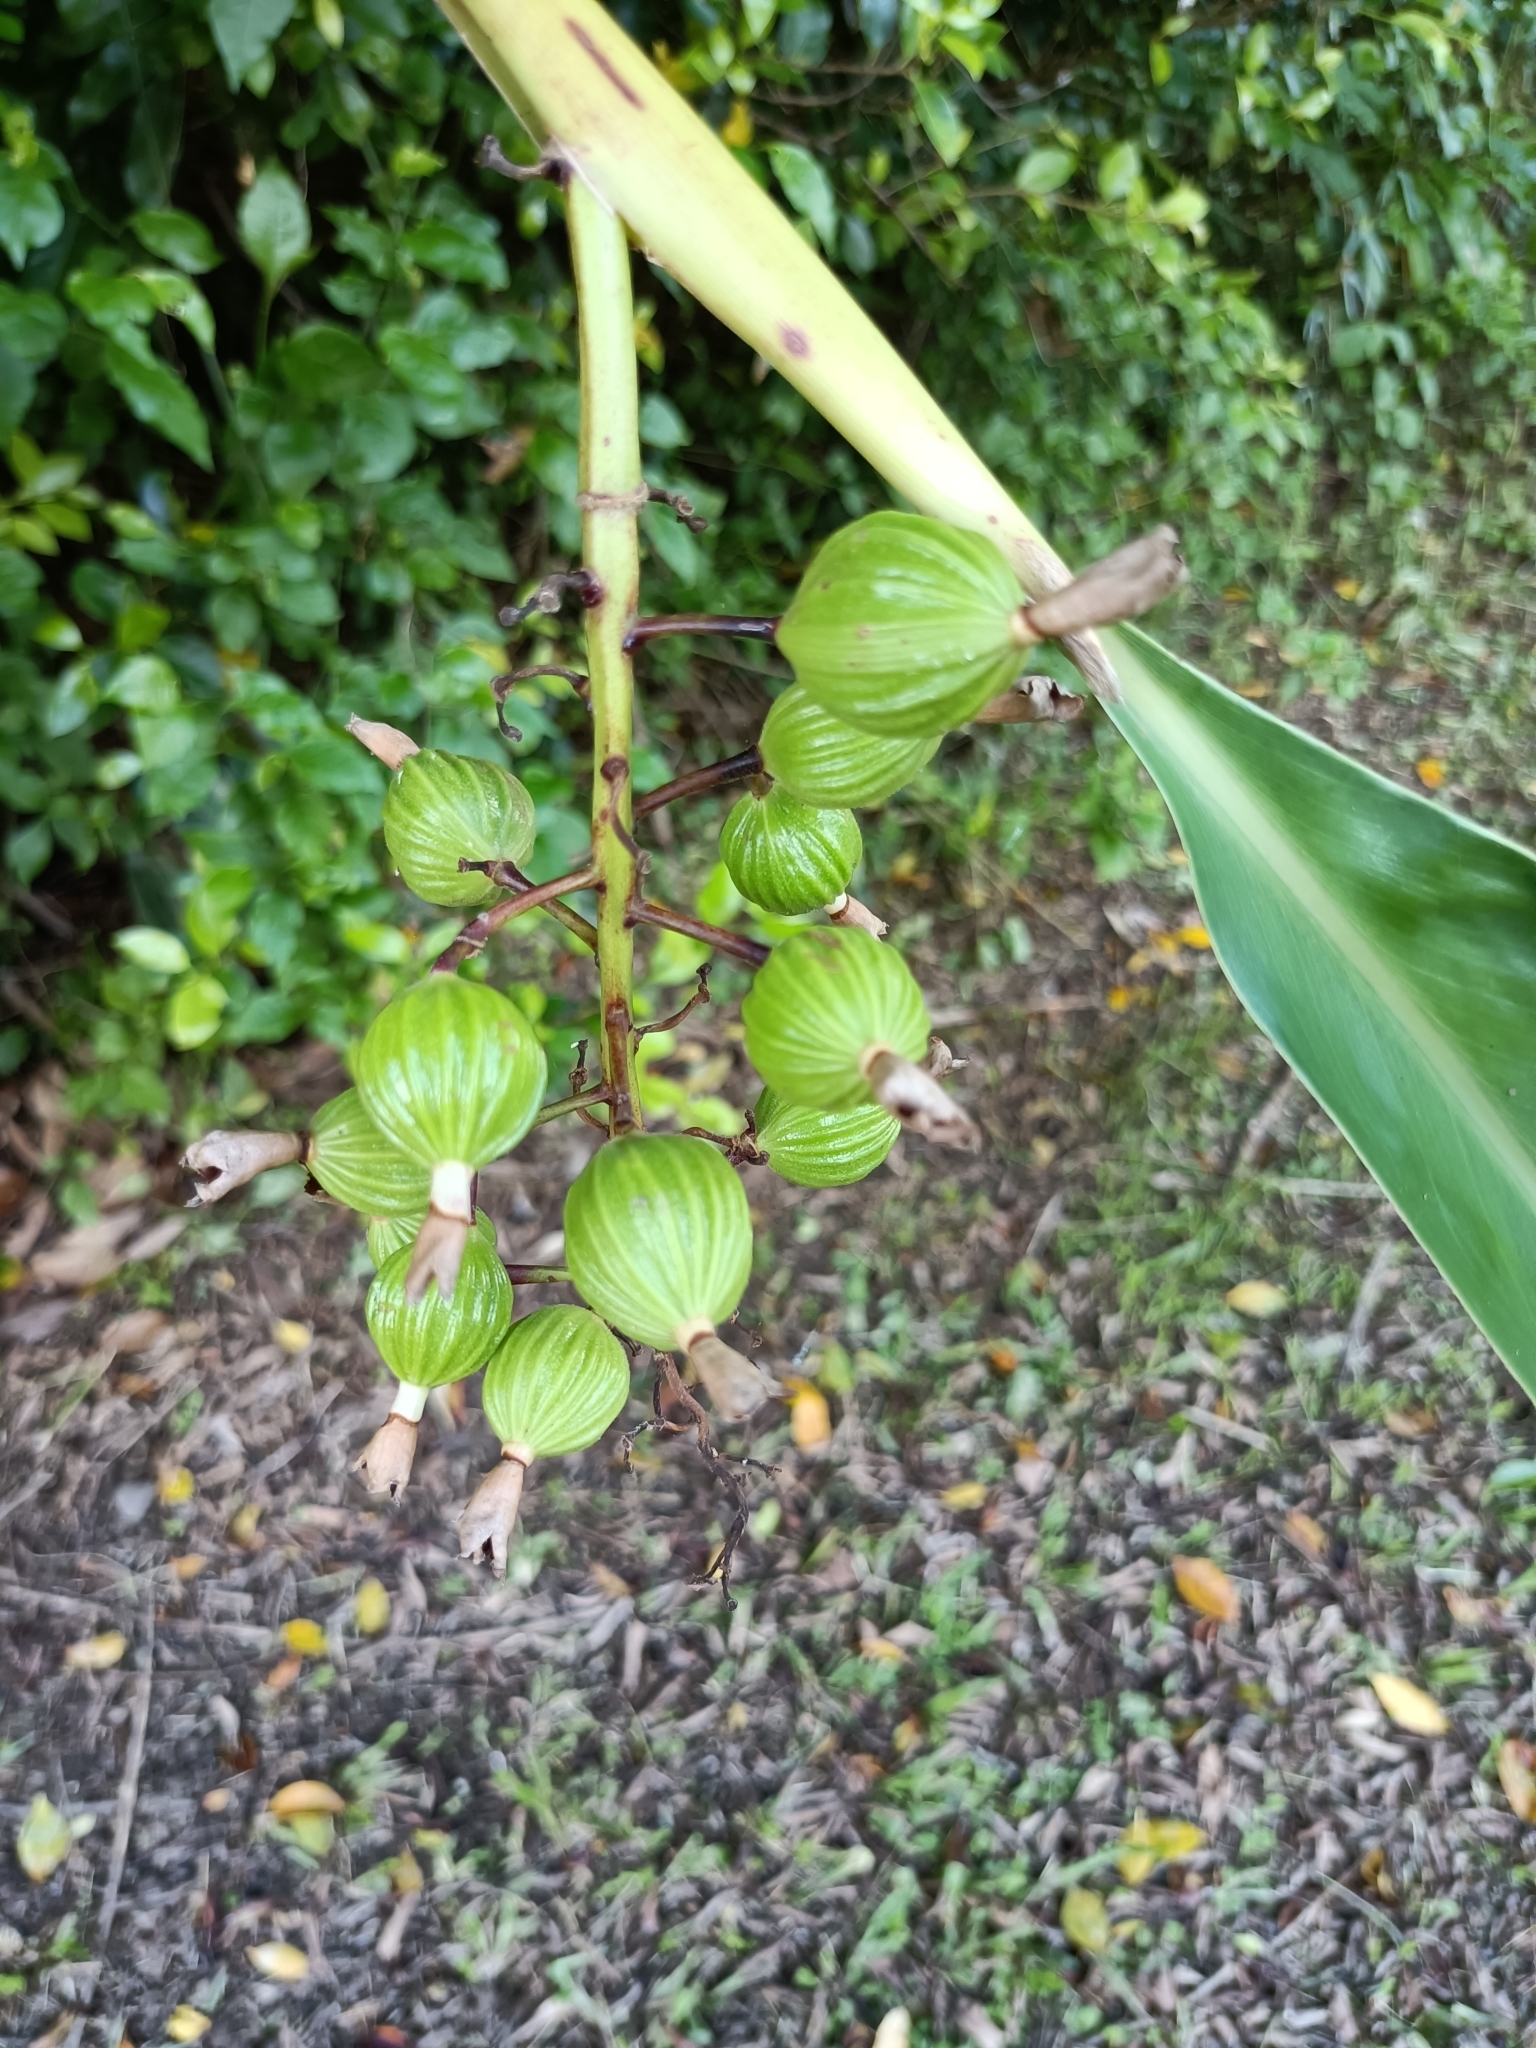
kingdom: Plantae
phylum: Tracheophyta
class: Liliopsida
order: Zingiberales
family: Zingiberaceae
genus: Alpinia
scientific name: Alpinia zerumbet
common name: Shellplant
